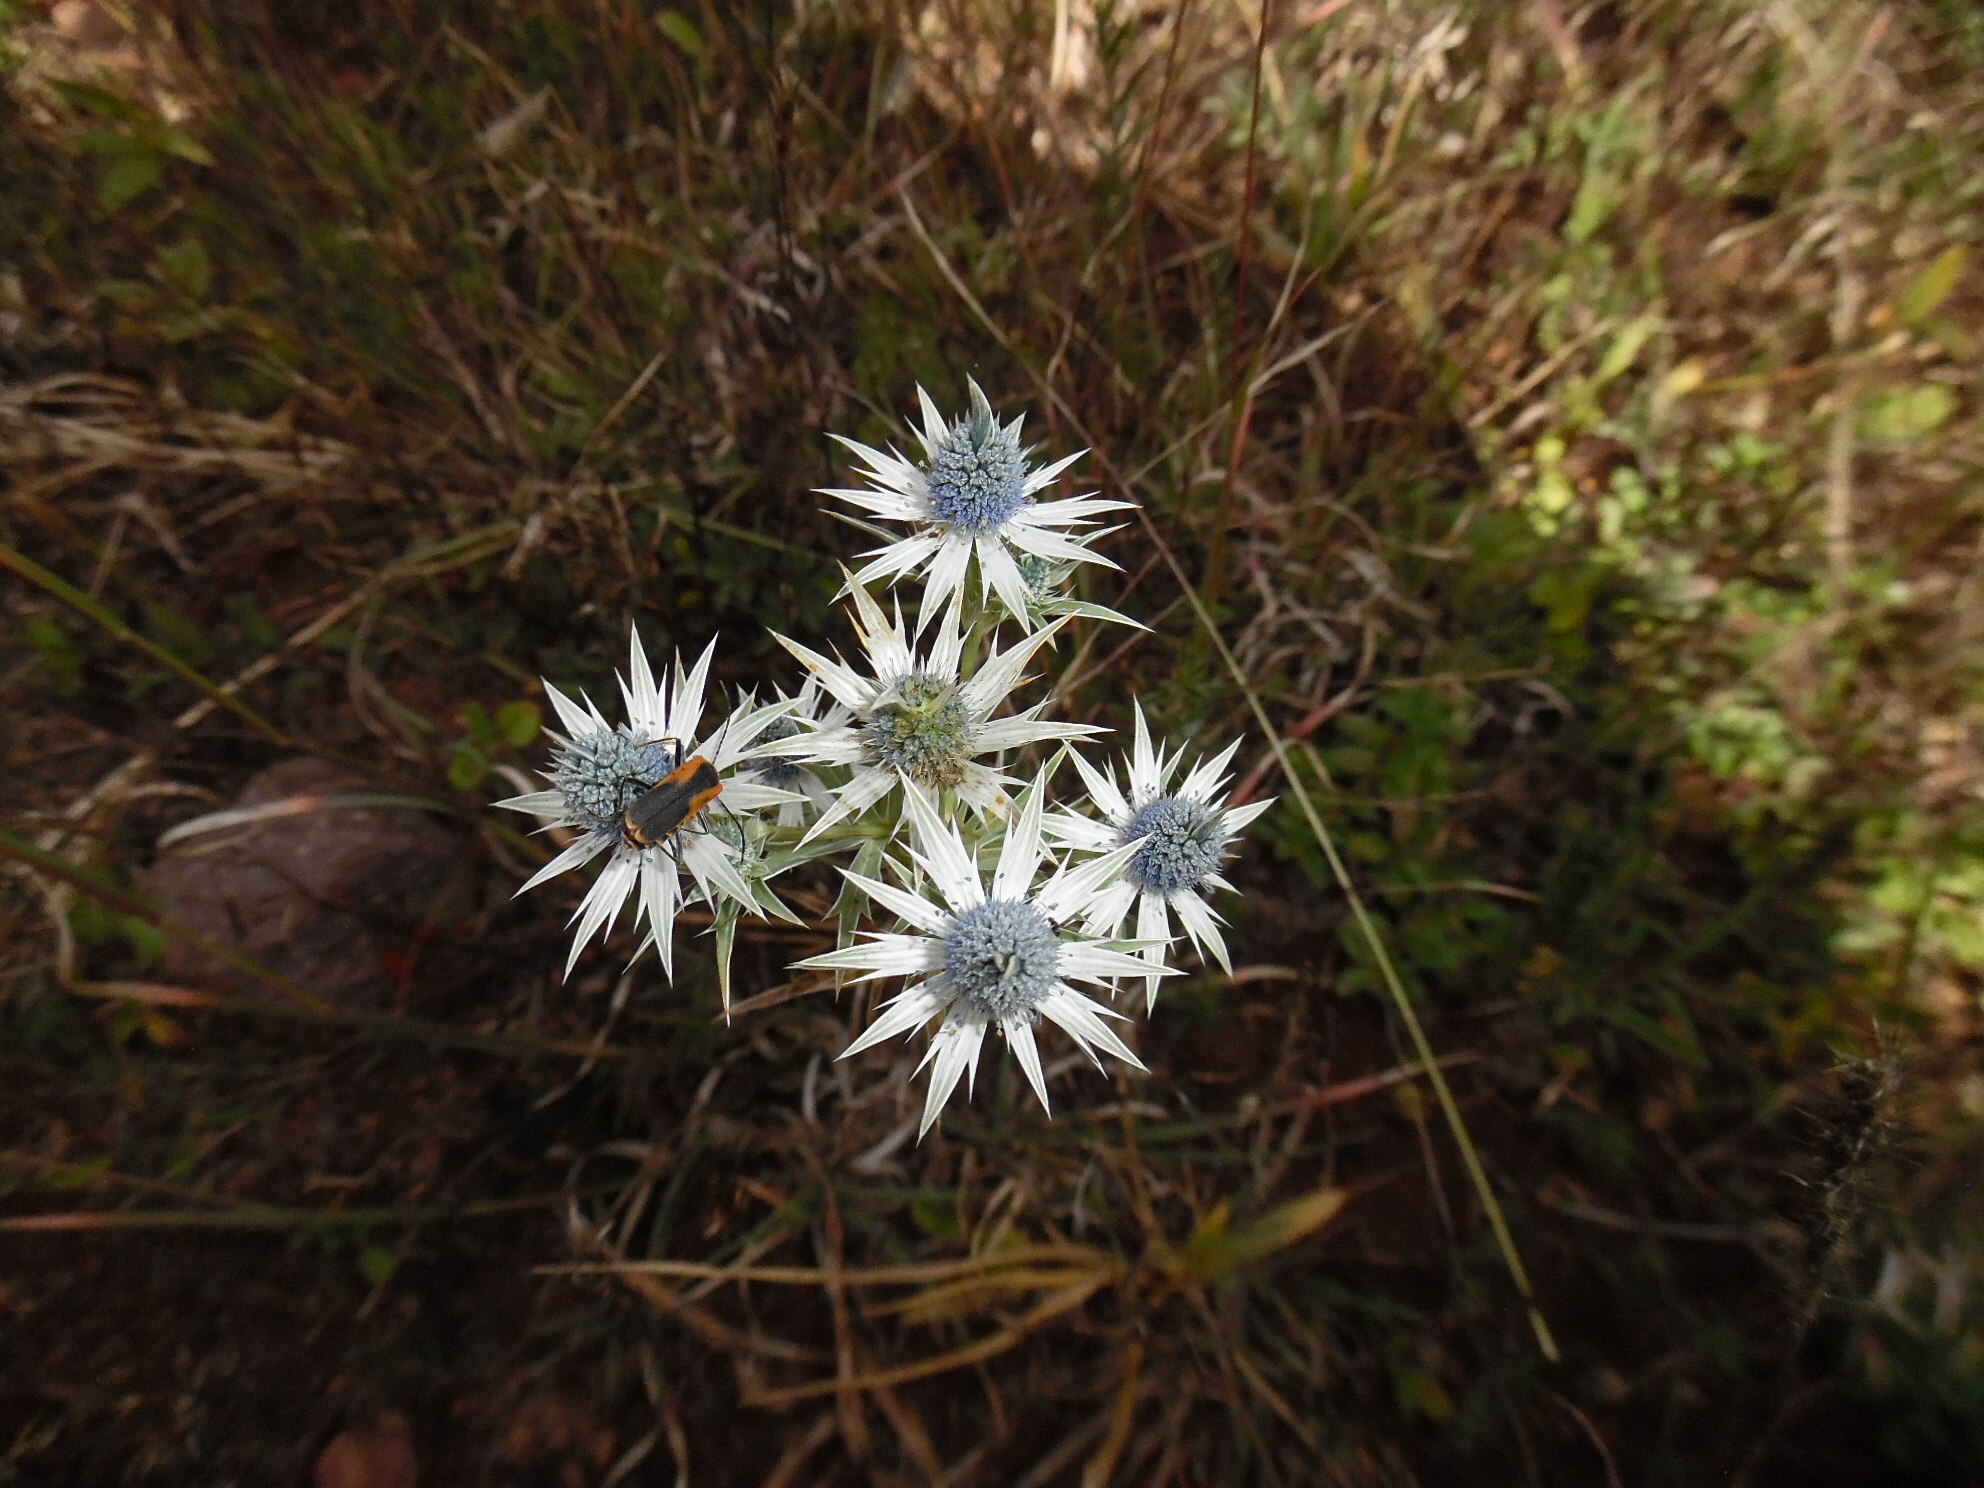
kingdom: Plantae
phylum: Tracheophyta
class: Magnoliopsida
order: Apiales
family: Apiaceae
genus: Eryngium
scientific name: Eryngium heterophyllum
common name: Mexican thistle
